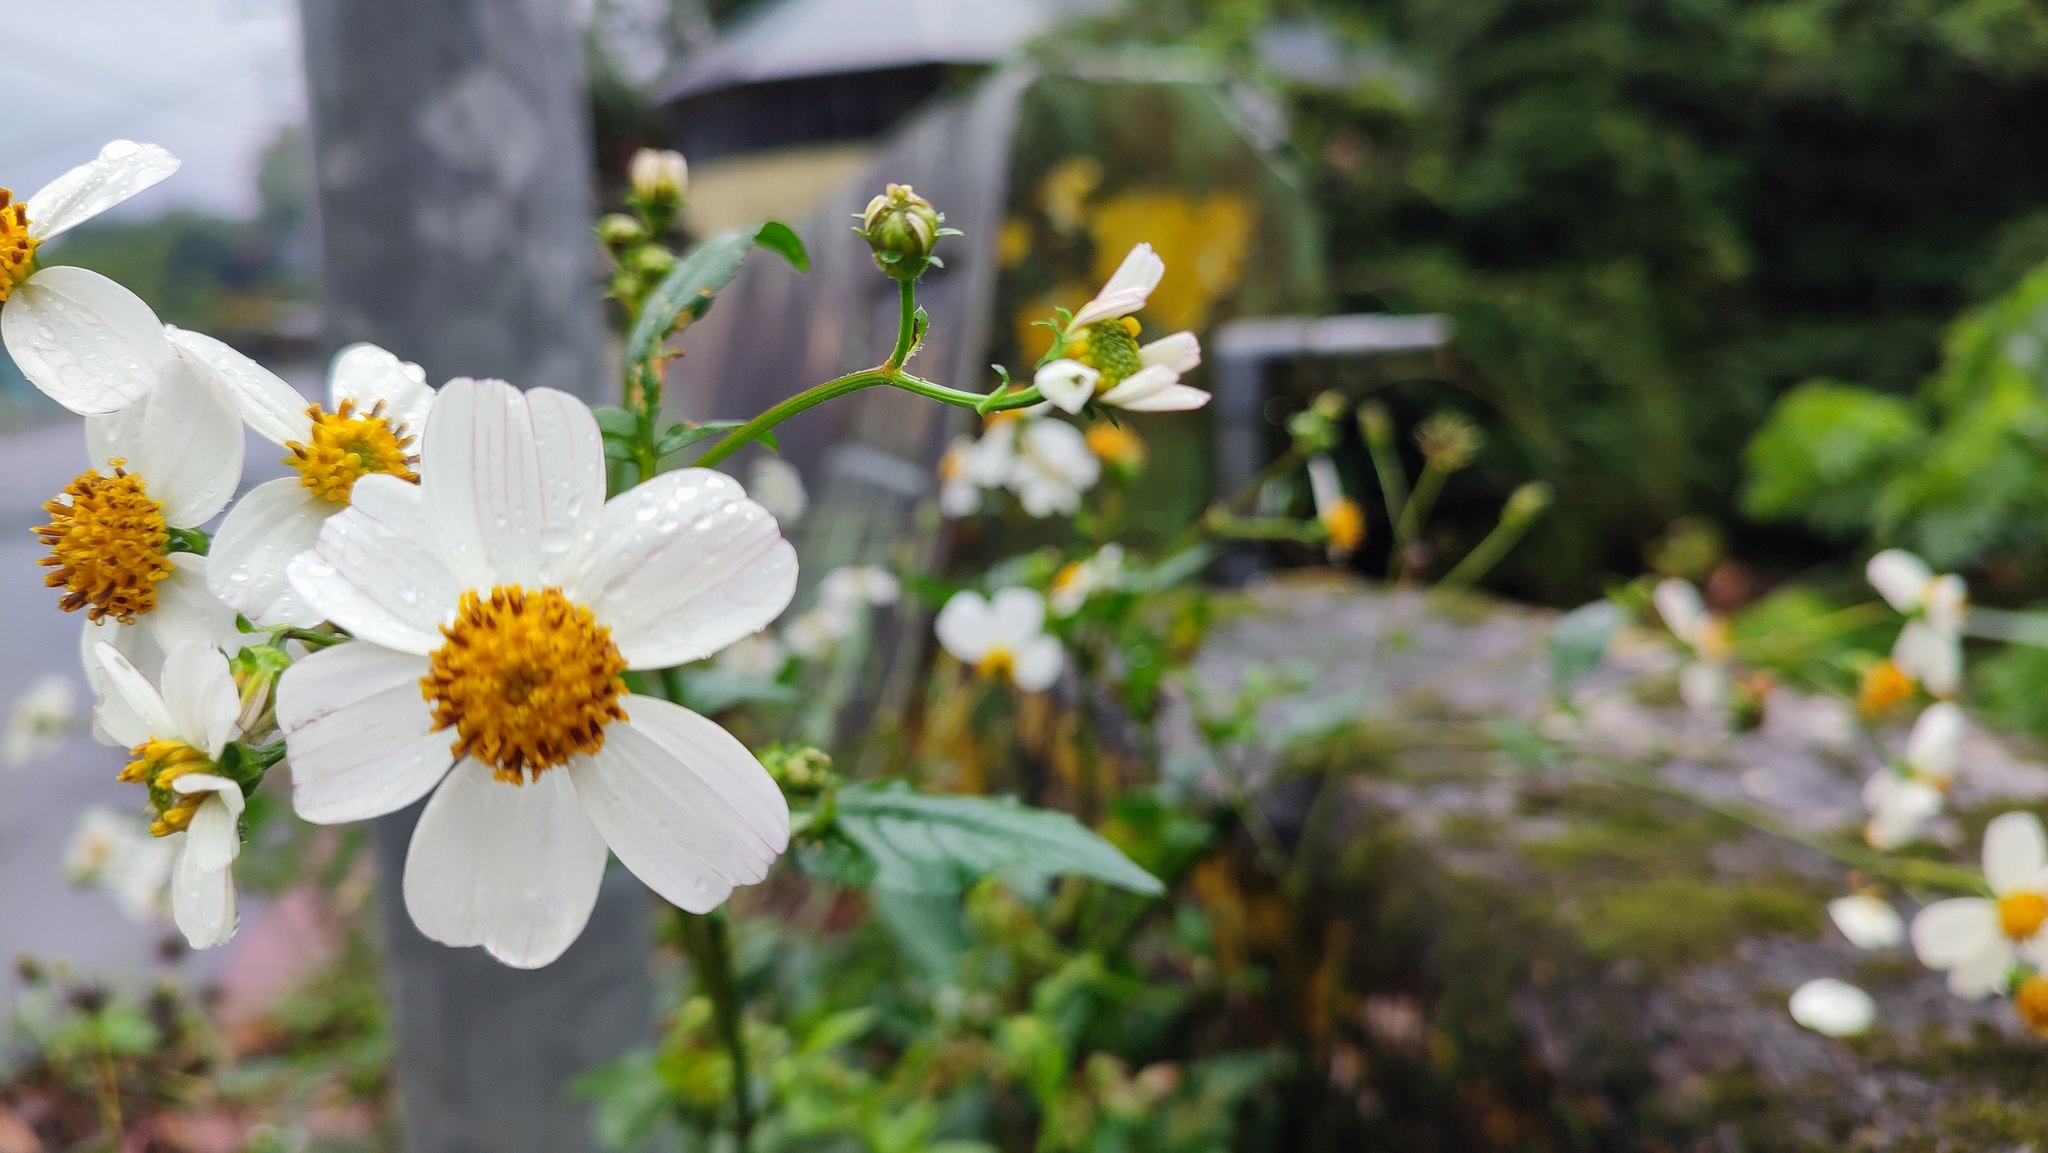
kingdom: Plantae
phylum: Tracheophyta
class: Magnoliopsida
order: Asterales
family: Asteraceae
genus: Bidens
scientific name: Bidens alba
